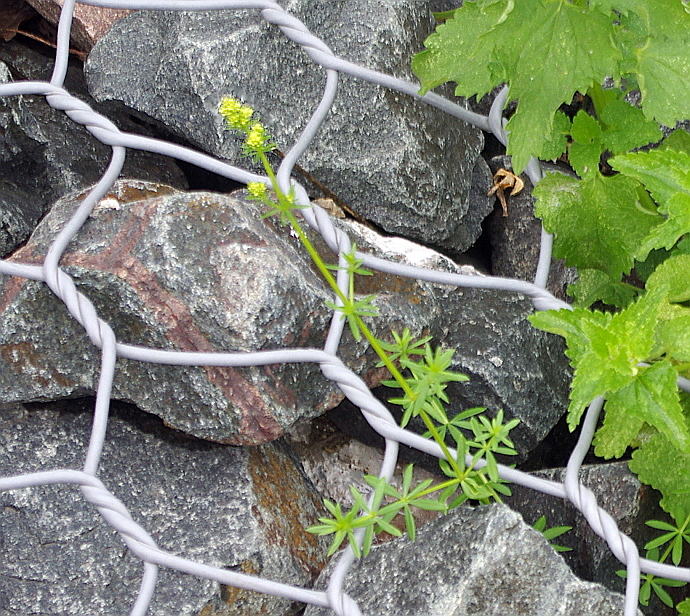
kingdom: Plantae
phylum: Tracheophyta
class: Magnoliopsida
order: Gentianales
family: Rubiaceae
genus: Galium
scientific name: Galium pomeranicum
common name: Bedstraw
